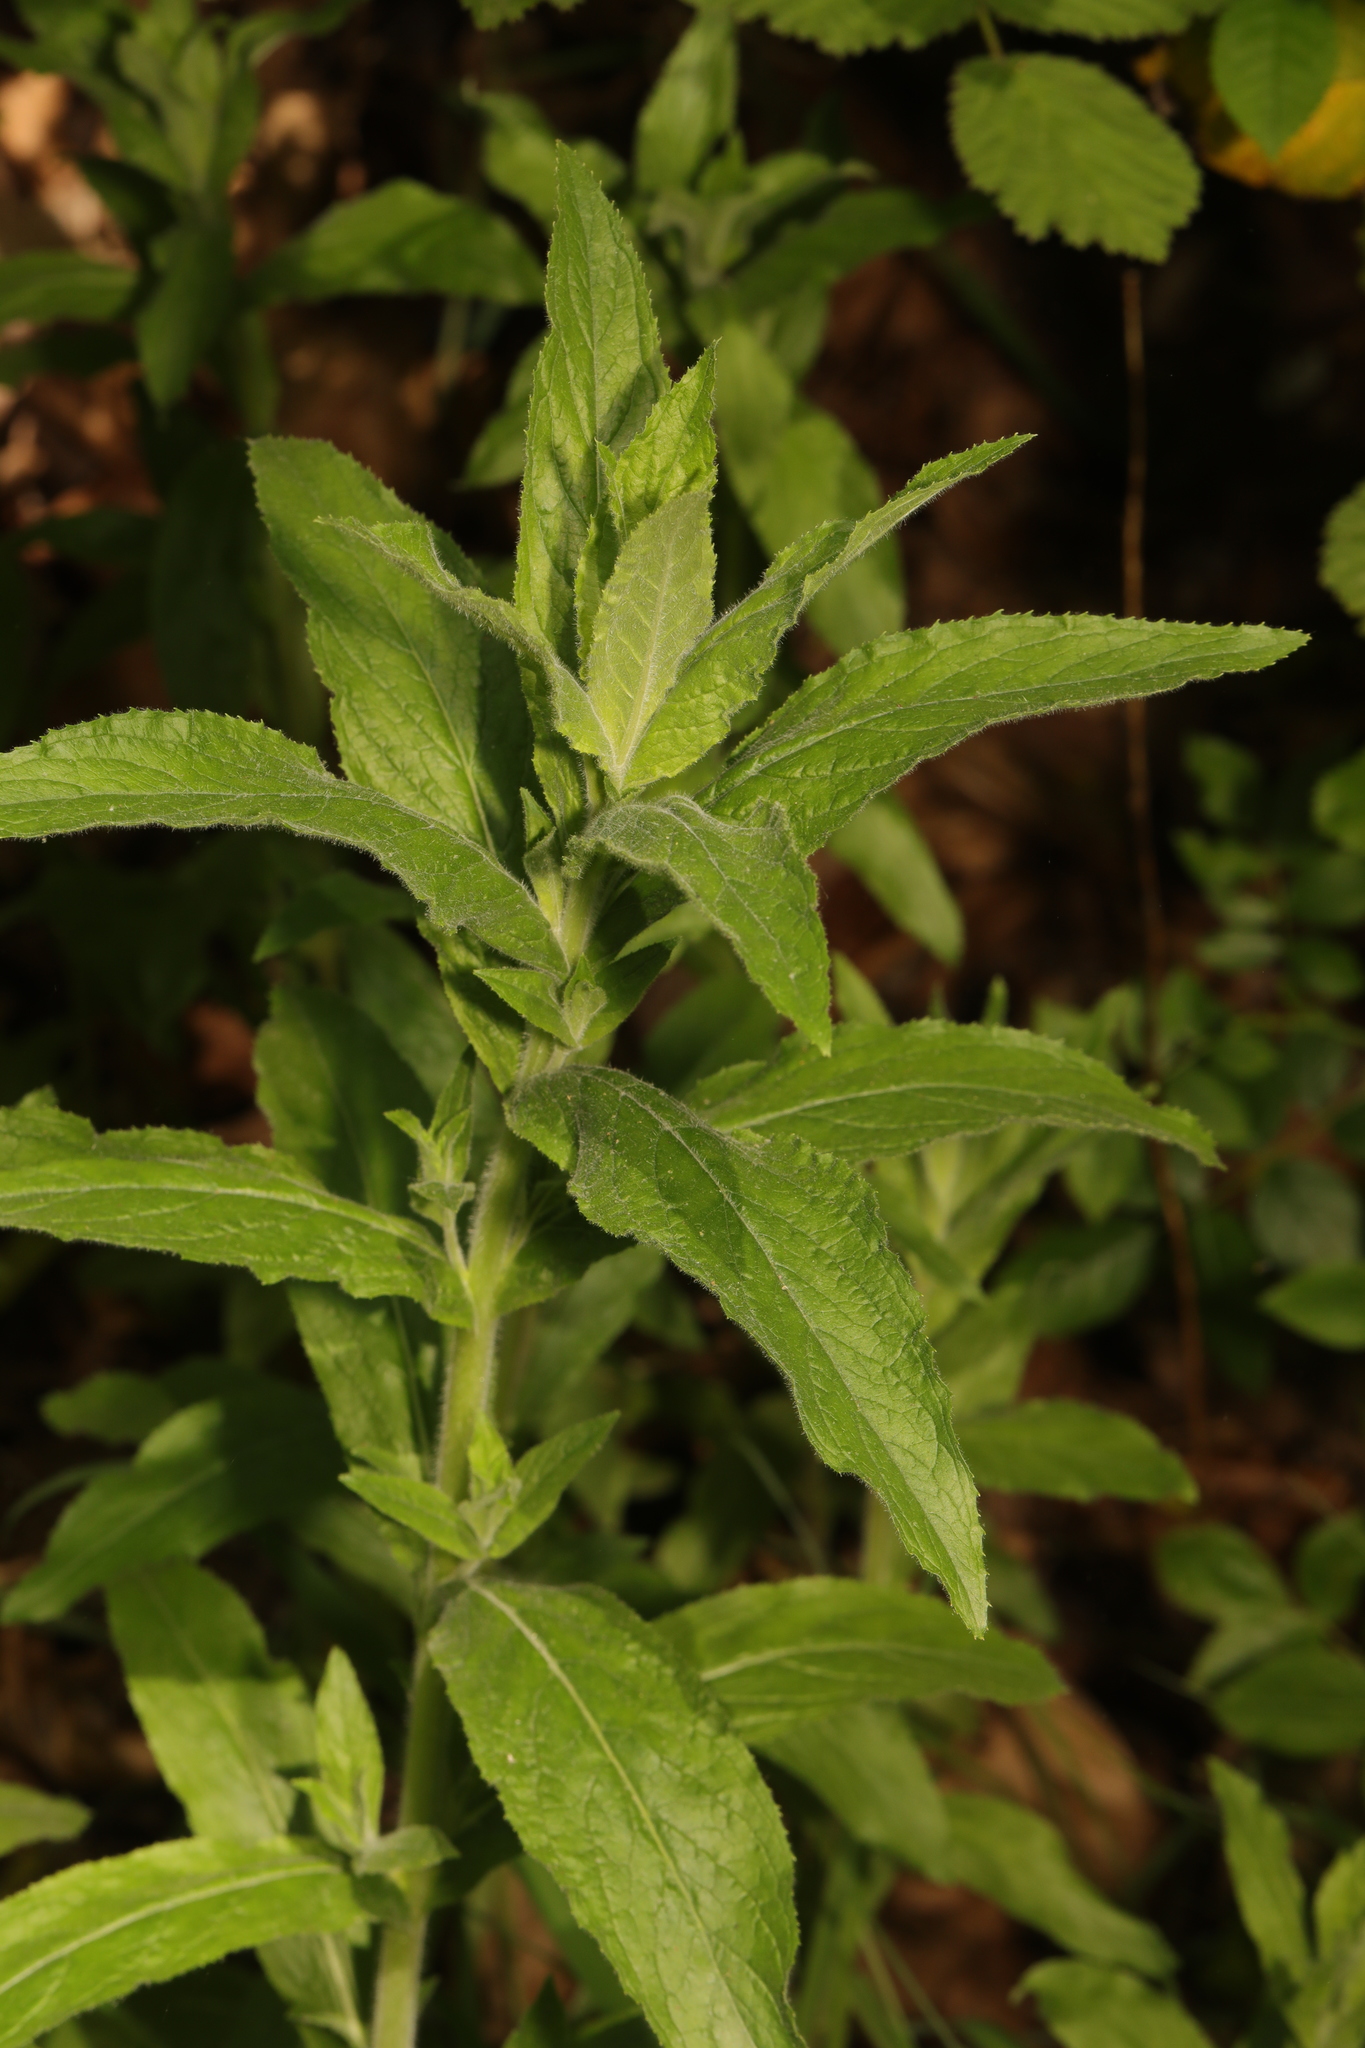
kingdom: Plantae
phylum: Tracheophyta
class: Magnoliopsida
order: Myrtales
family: Onagraceae
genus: Epilobium
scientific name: Epilobium hirsutum
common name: Great willowherb
